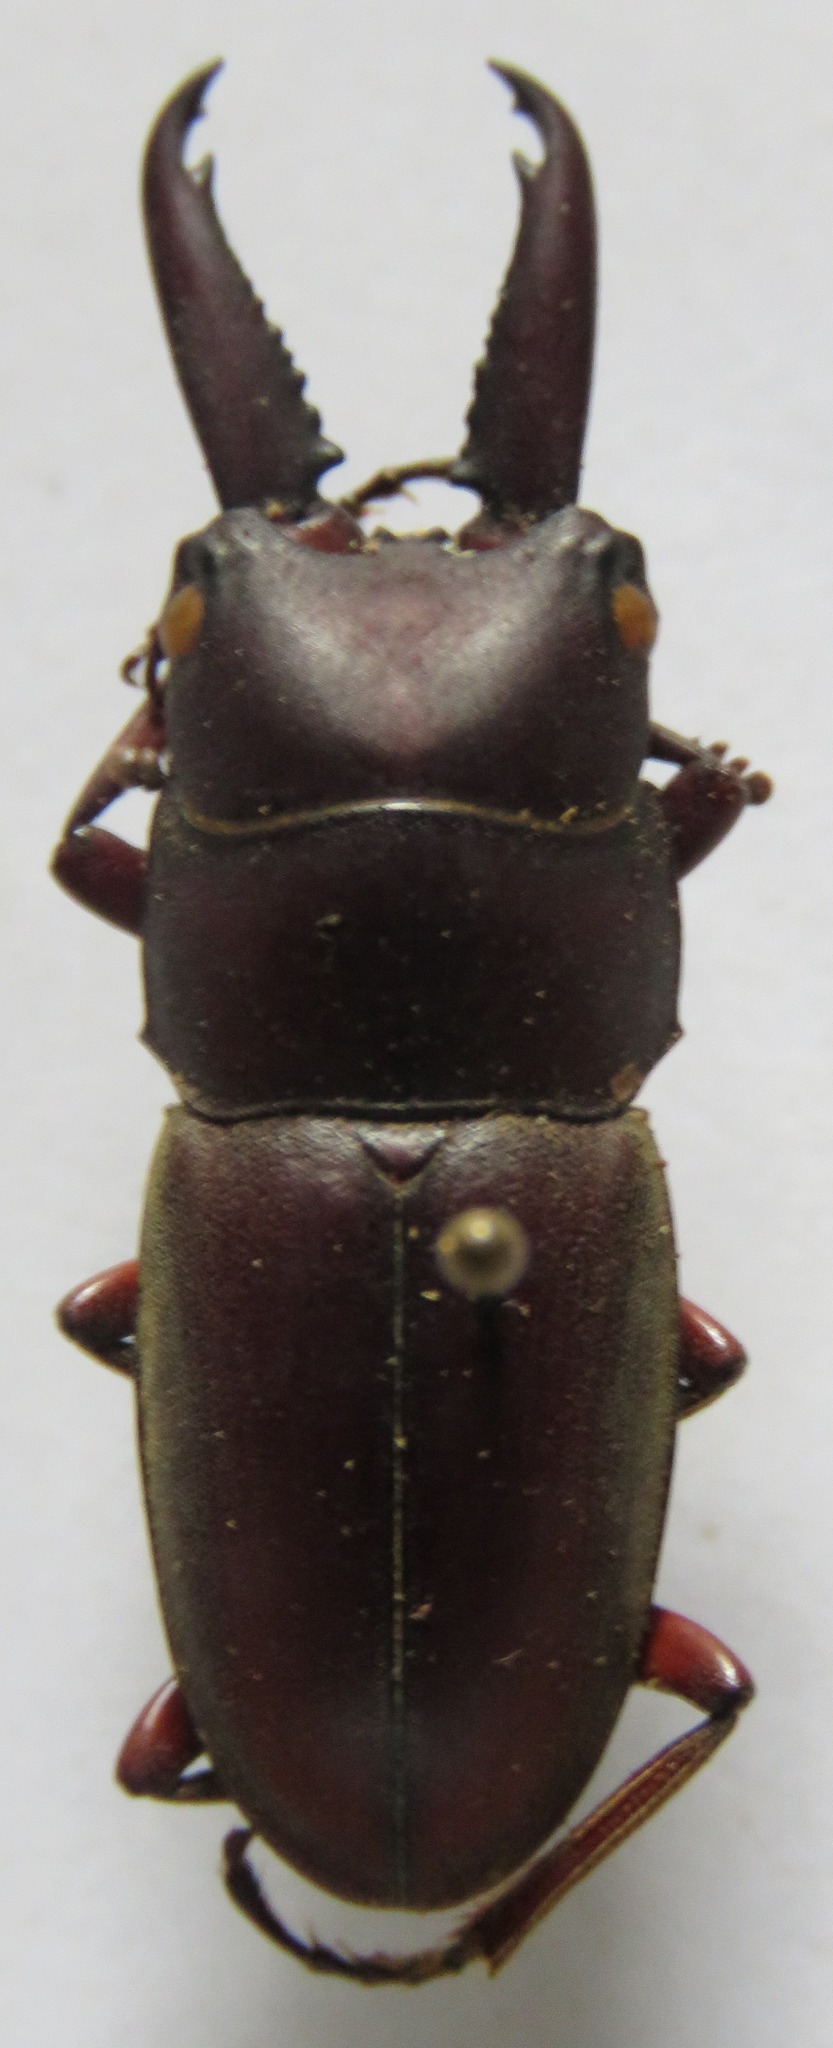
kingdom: Animalia
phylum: Arthropoda
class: Insecta
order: Coleoptera
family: Lucanidae
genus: Prosopocoilus
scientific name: Prosopocoilus mysticus
